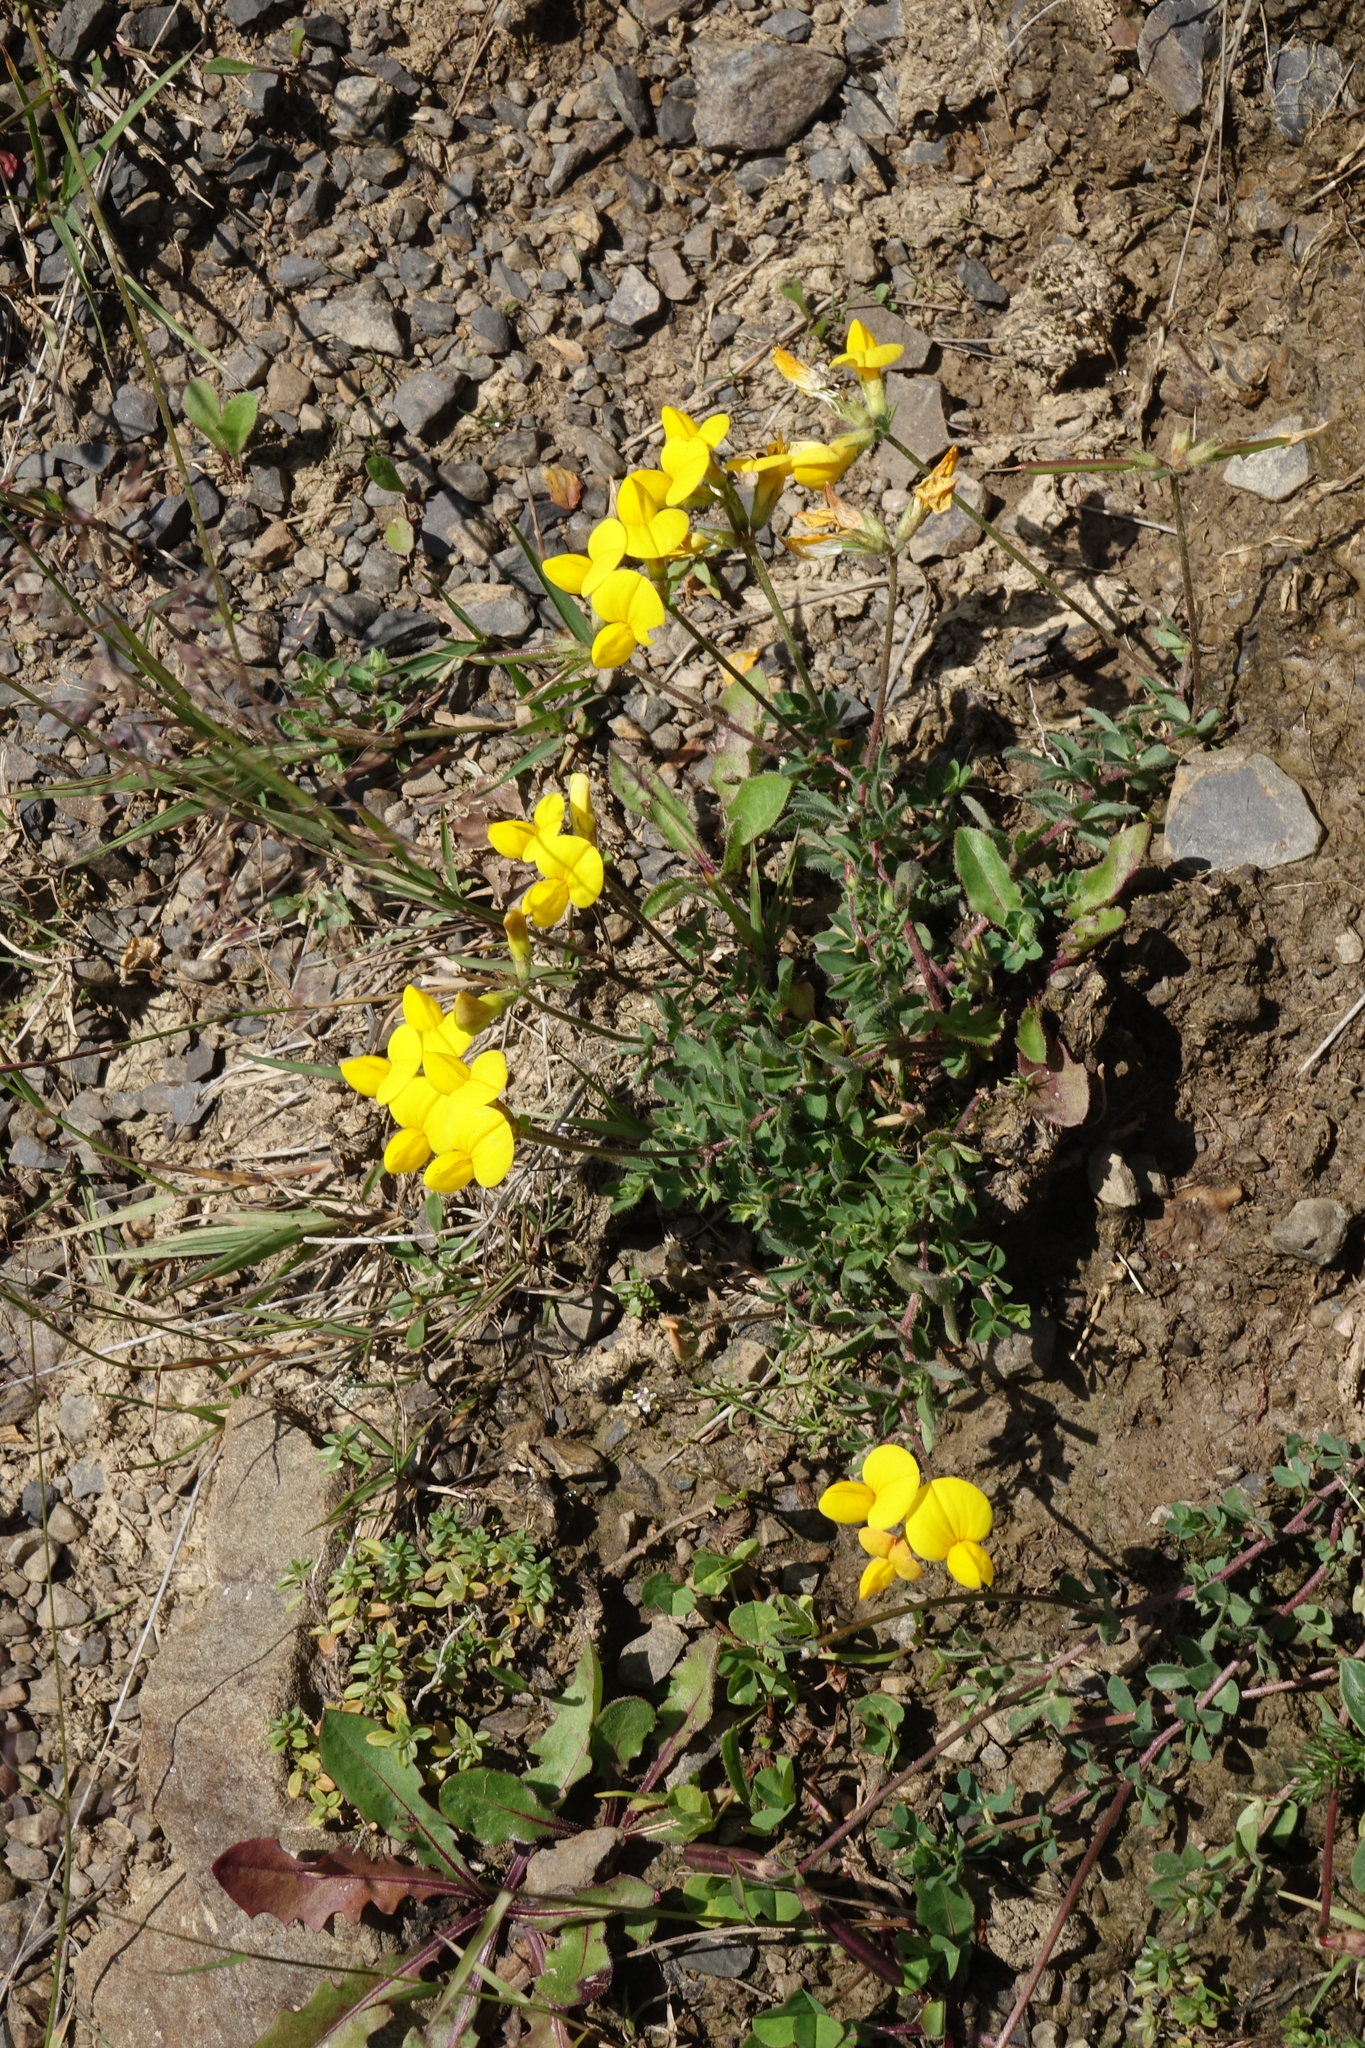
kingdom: Plantae
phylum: Tracheophyta
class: Magnoliopsida
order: Fabales
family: Fabaceae
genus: Lotus
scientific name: Lotus corniculatus
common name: Common bird's-foot-trefoil
